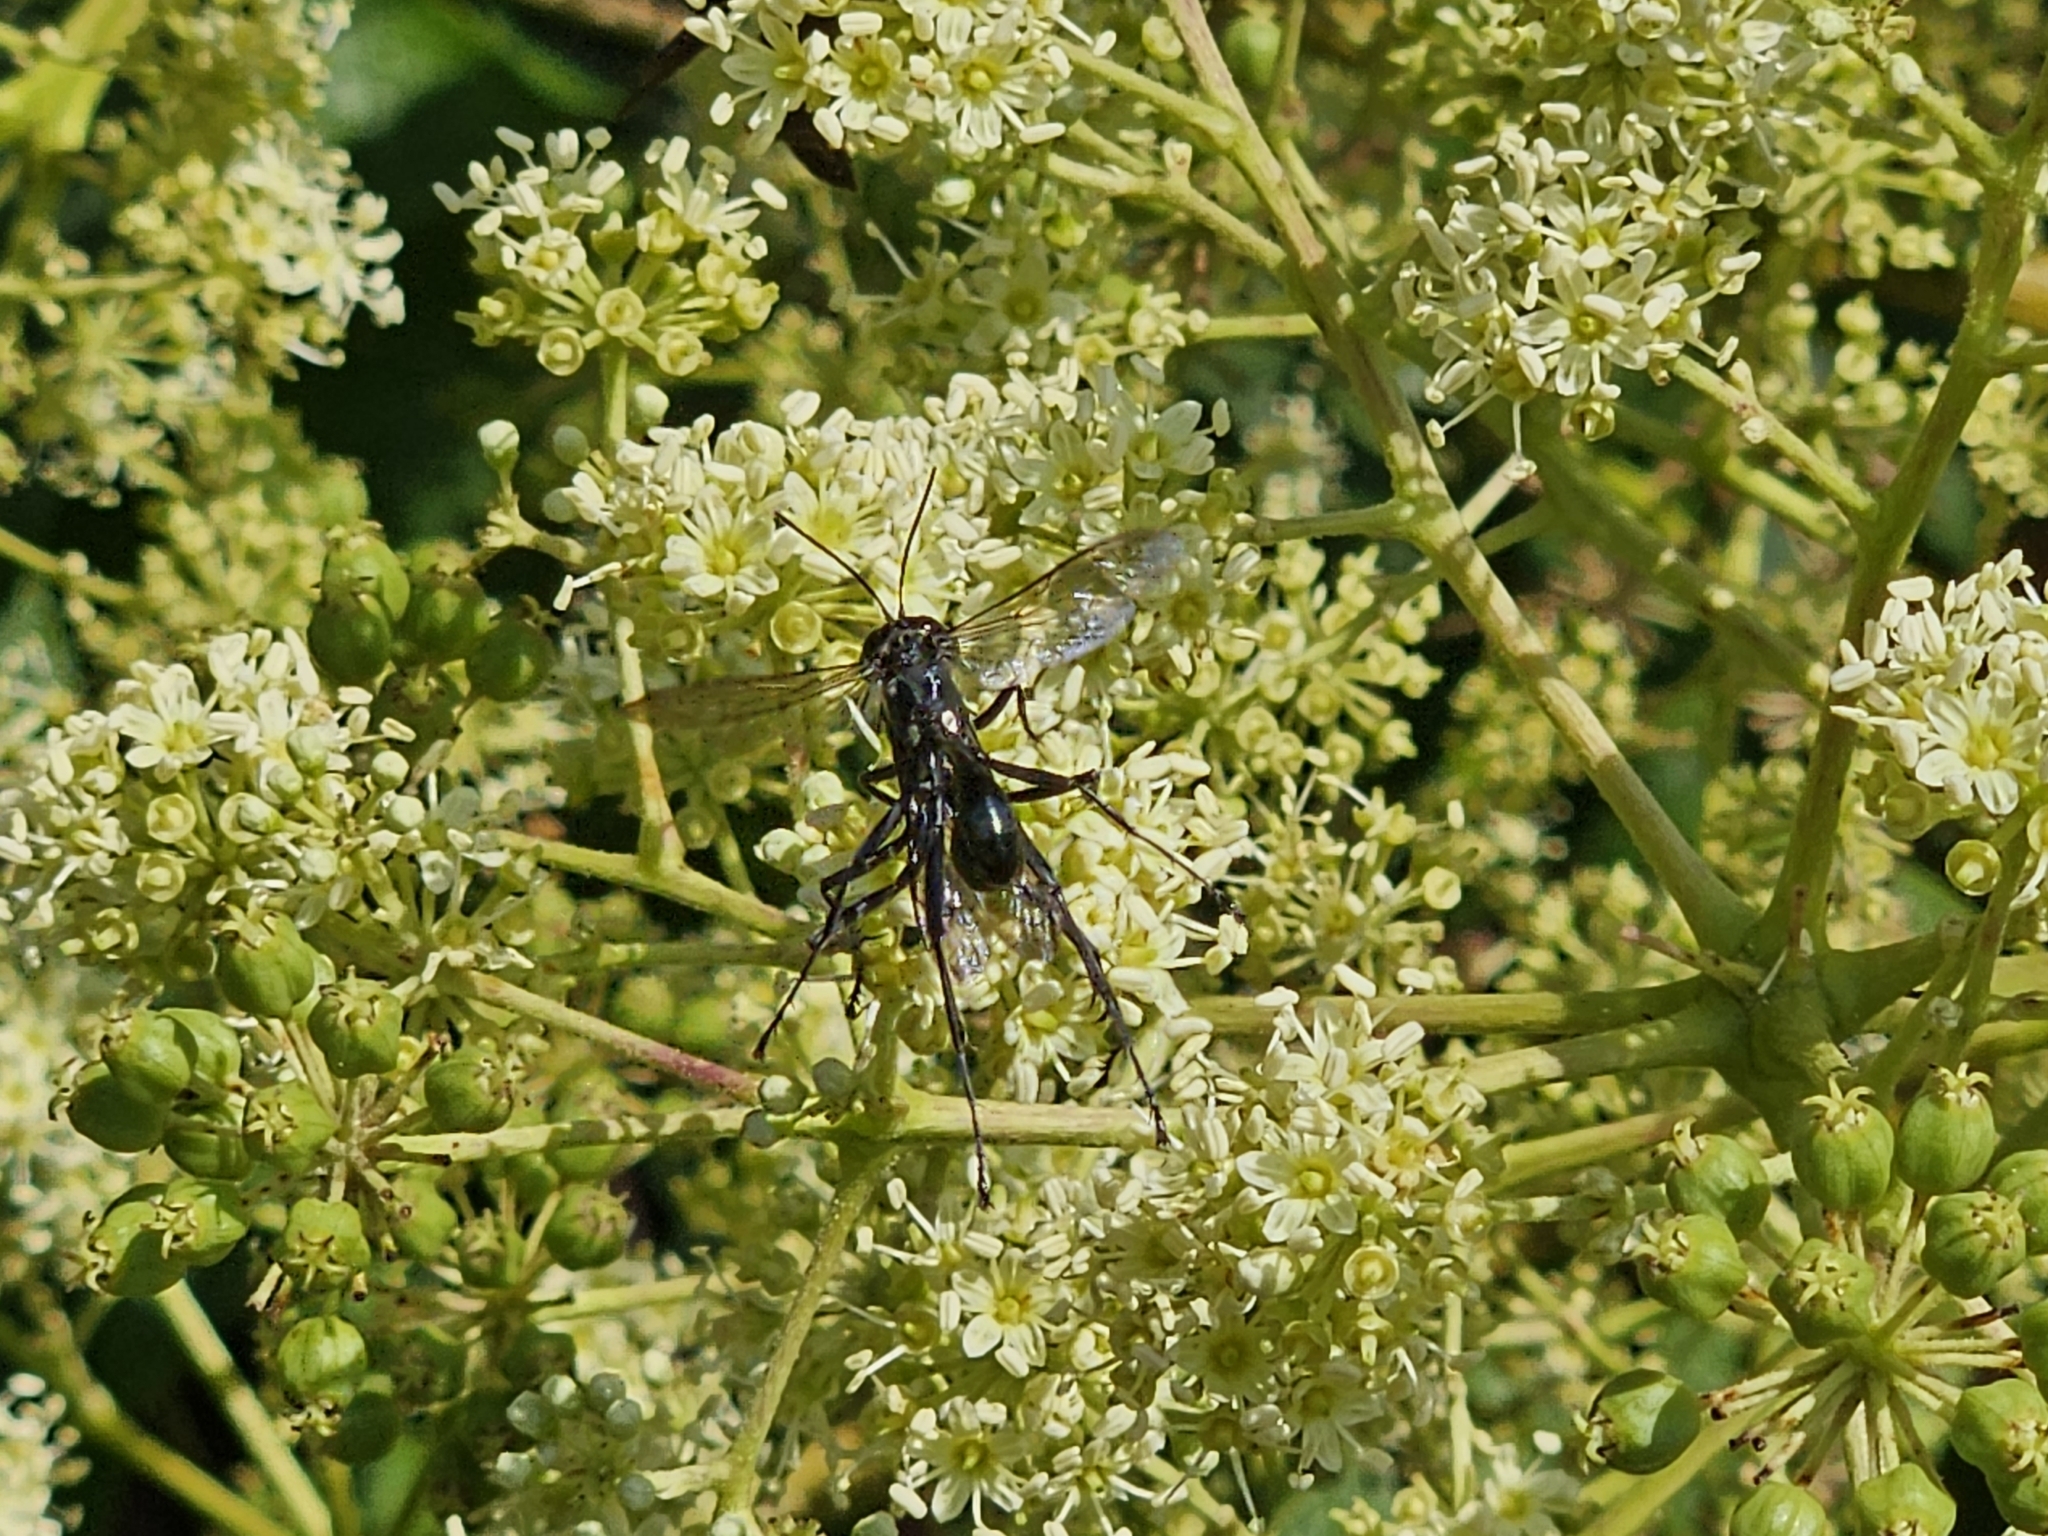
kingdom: Animalia
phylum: Arthropoda
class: Insecta
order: Hymenoptera
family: Sphecidae
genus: Eremnophila
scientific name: Eremnophila aureonotata
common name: Gold-marked thread-waisted wasp
